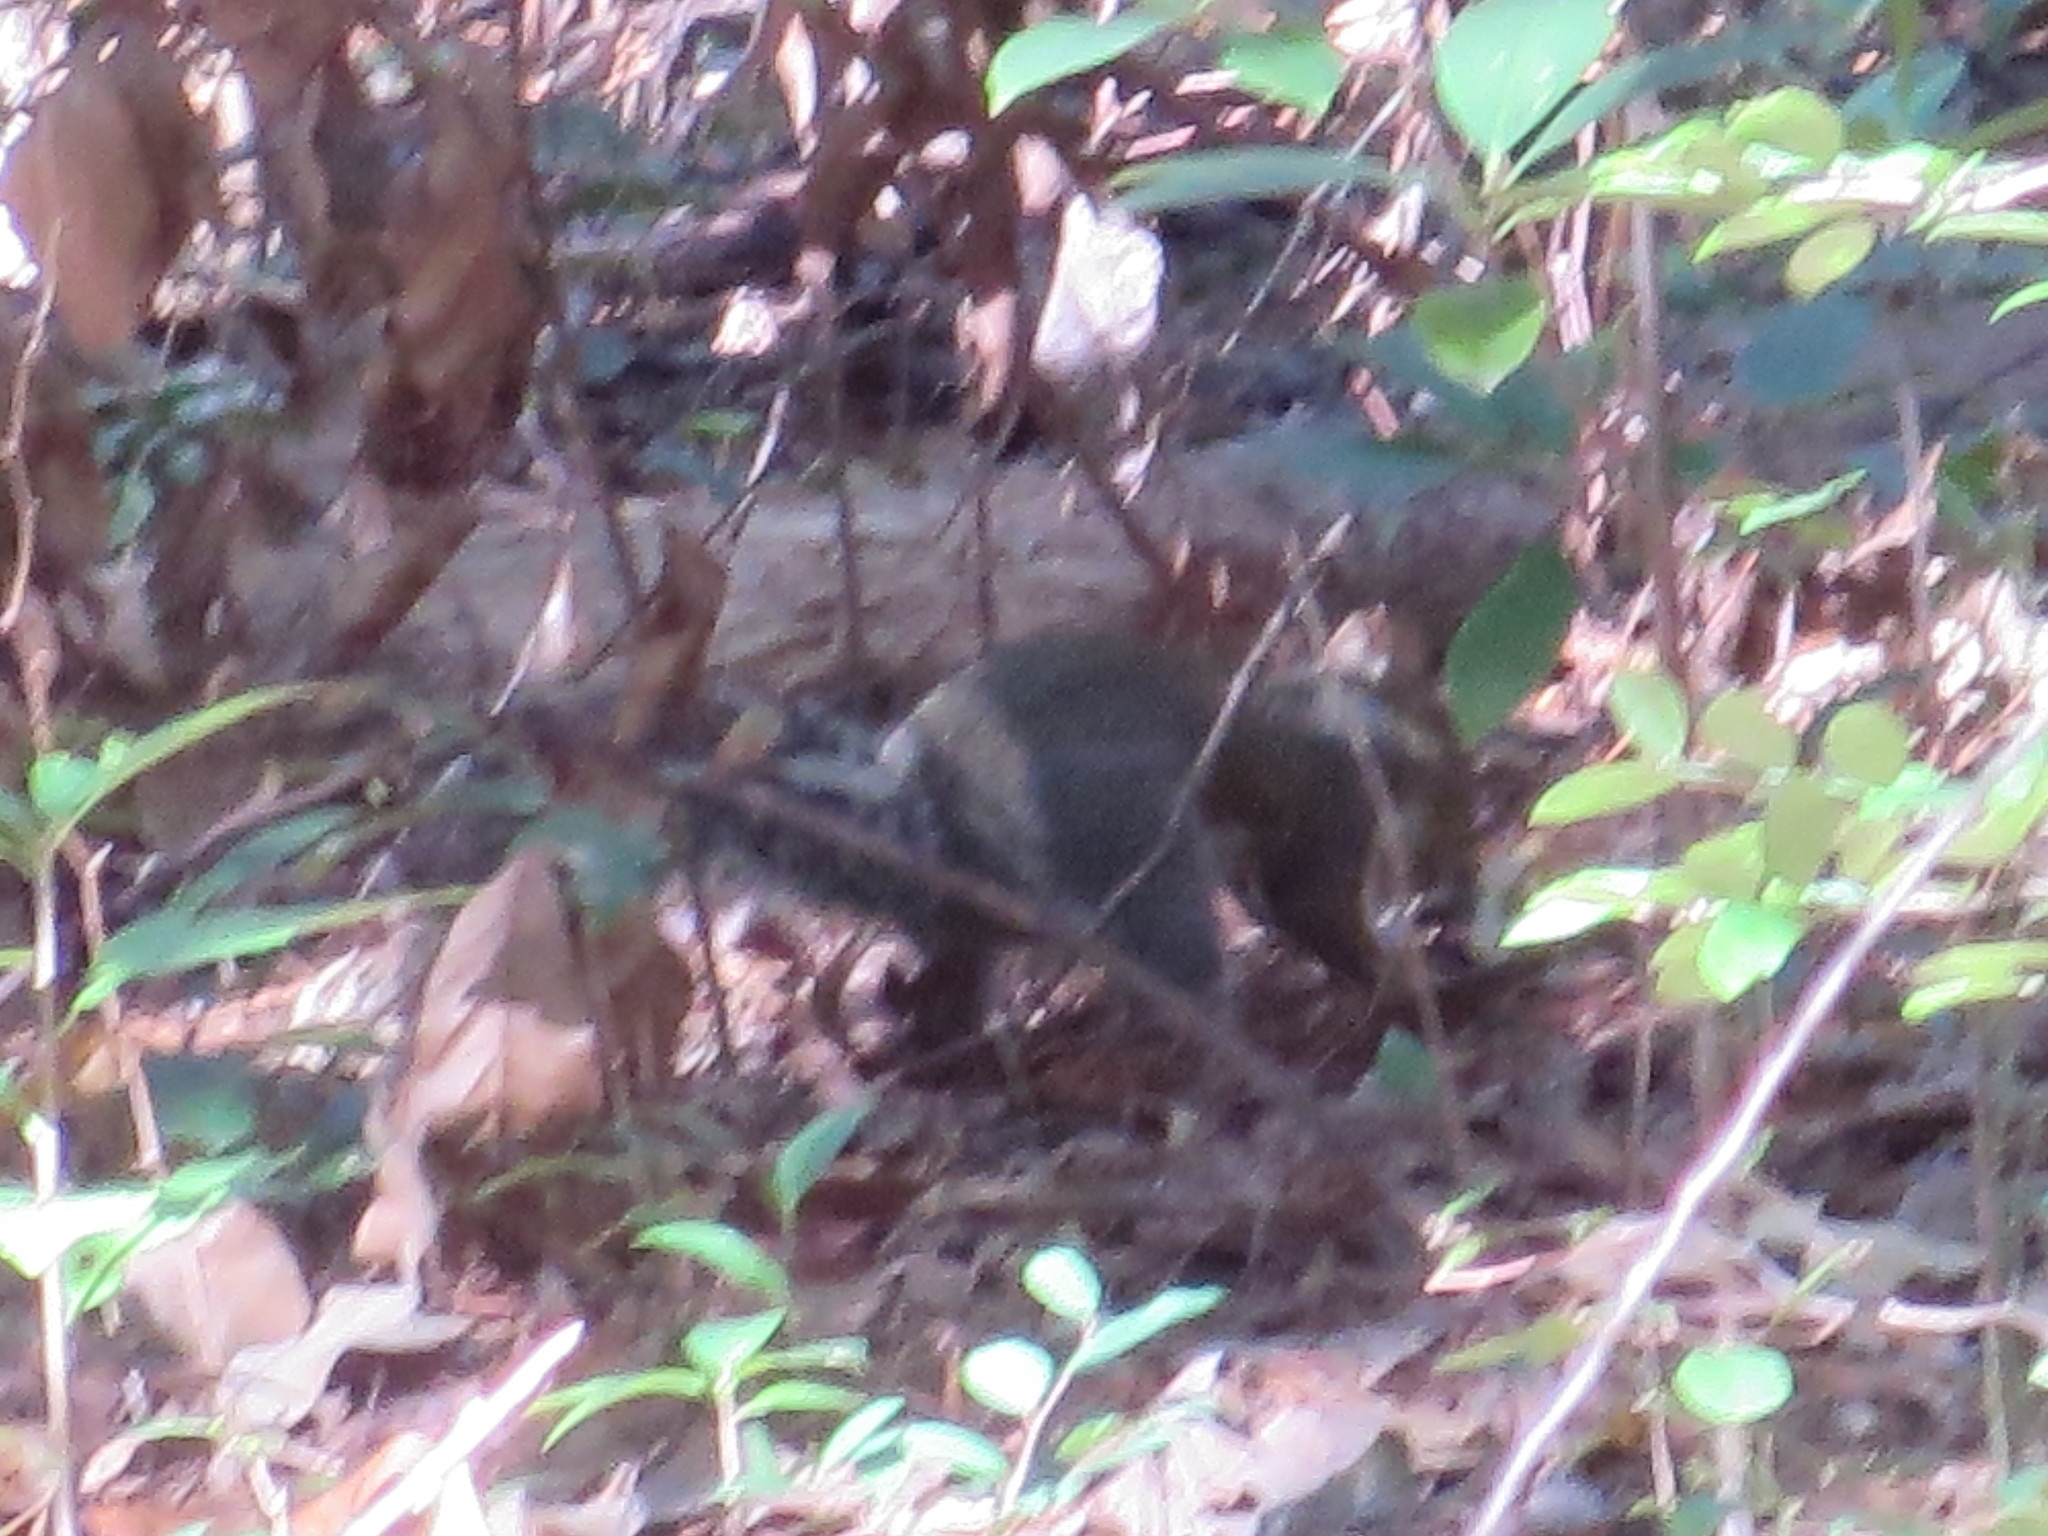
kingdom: Animalia
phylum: Chordata
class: Mammalia
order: Rodentia
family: Sciuridae
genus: Sciurus
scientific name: Sciurus carolinensis
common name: Eastern gray squirrel
